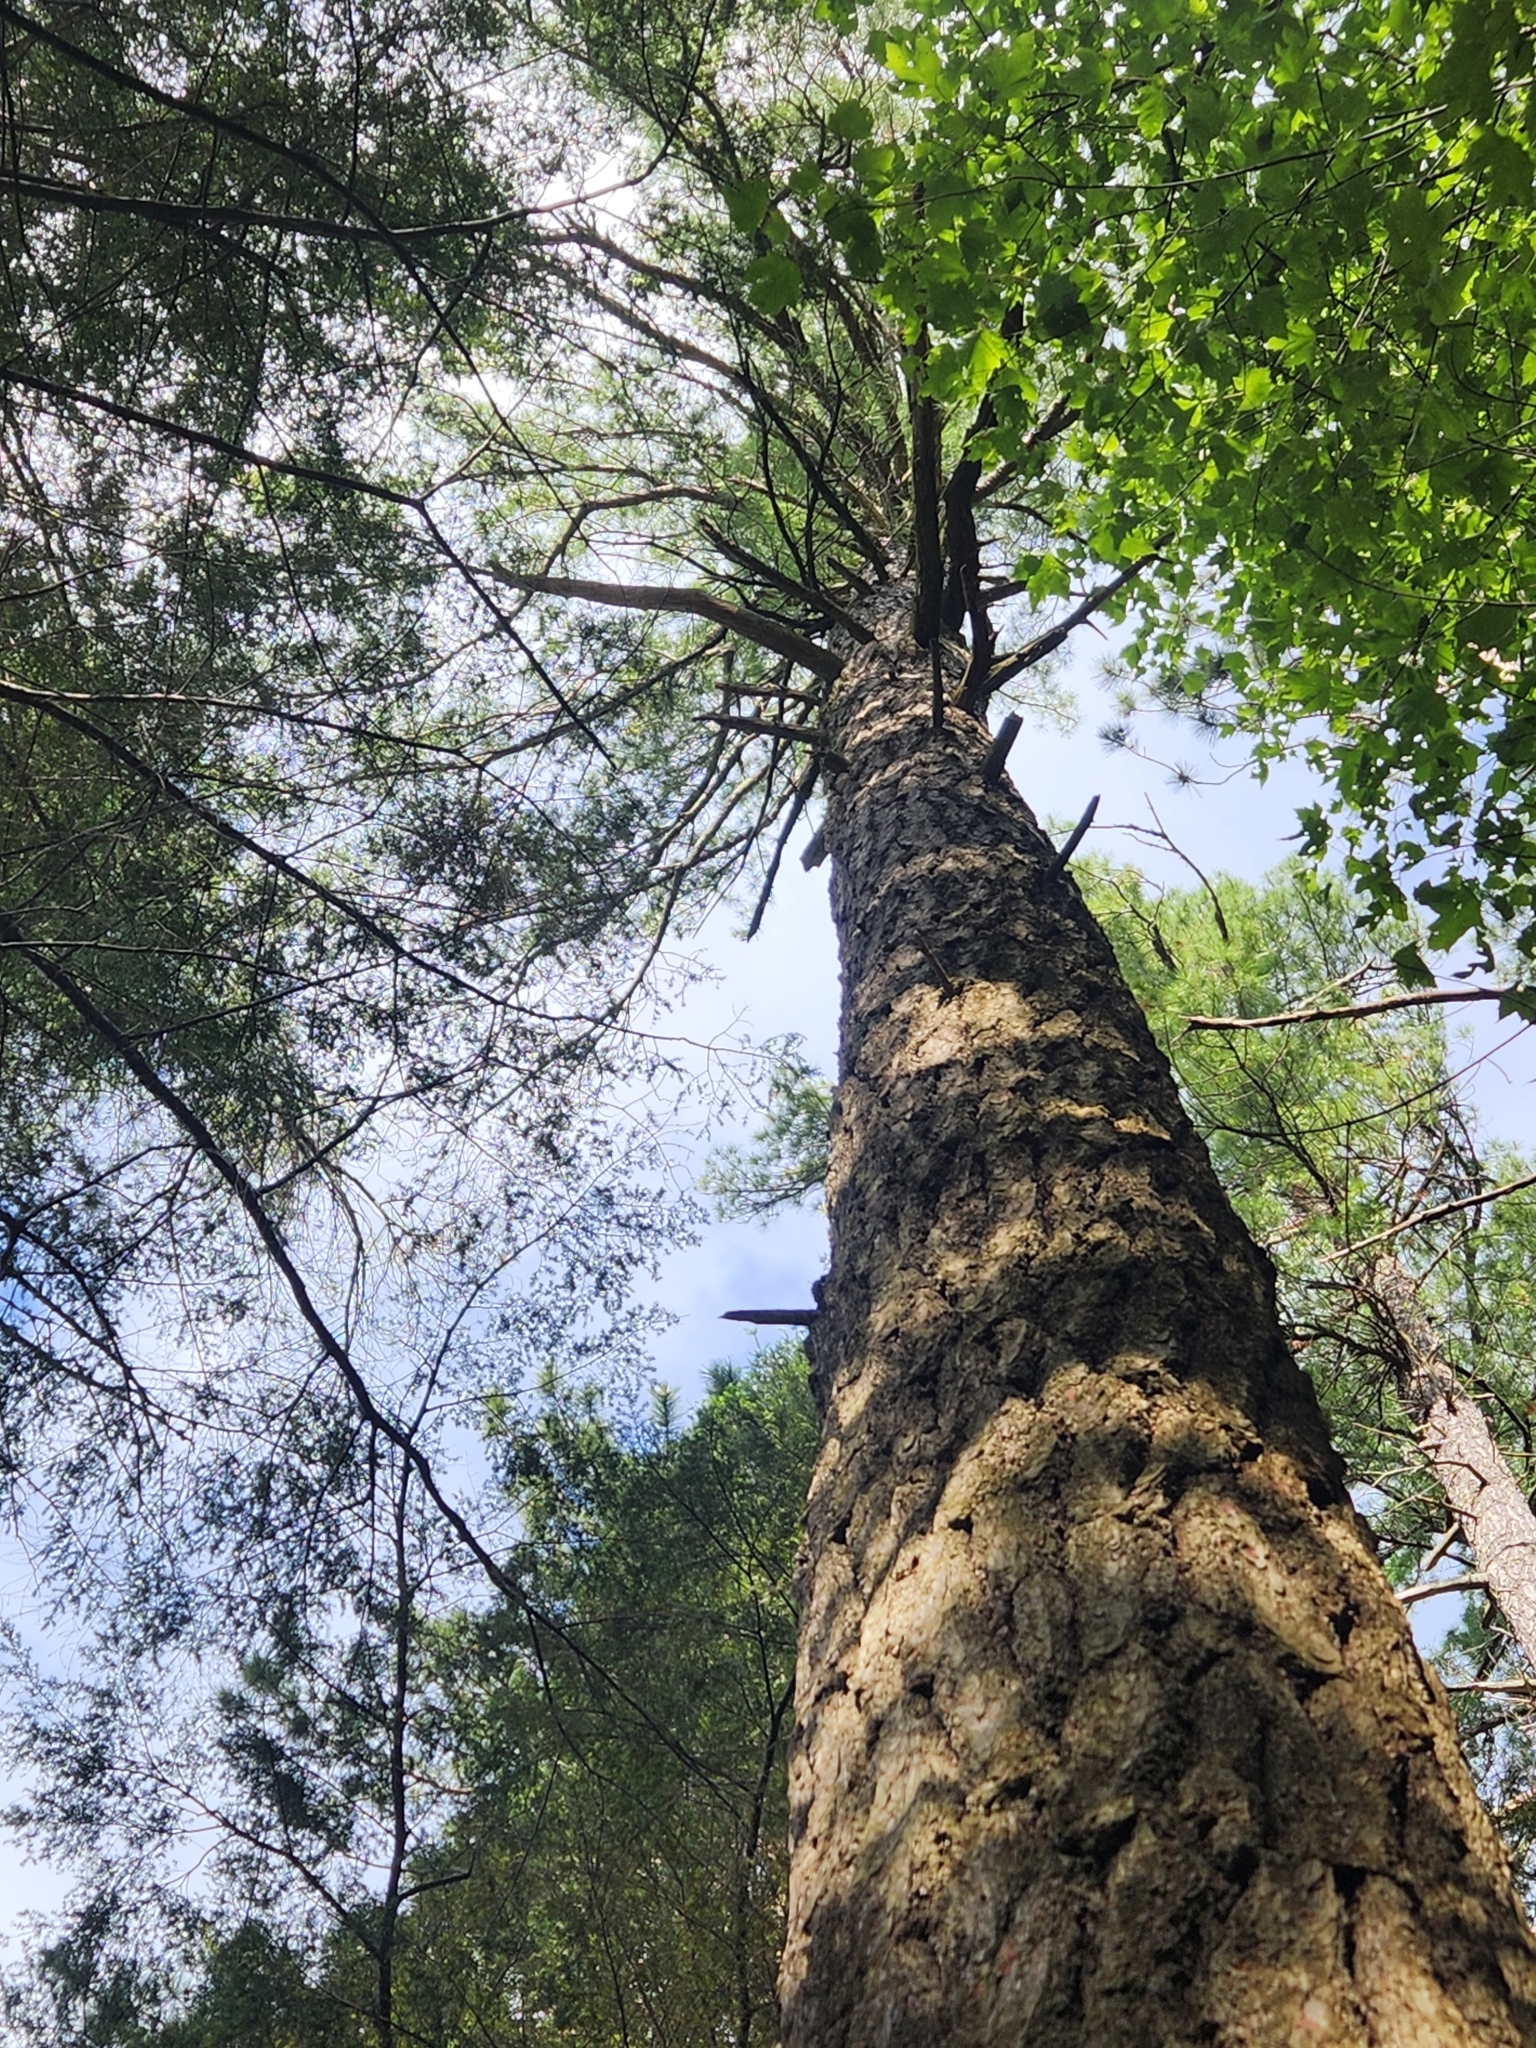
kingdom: Plantae
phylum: Tracheophyta
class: Pinopsida
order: Pinales
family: Pinaceae
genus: Pinus
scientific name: Pinus strobus
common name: Weymouth pine
